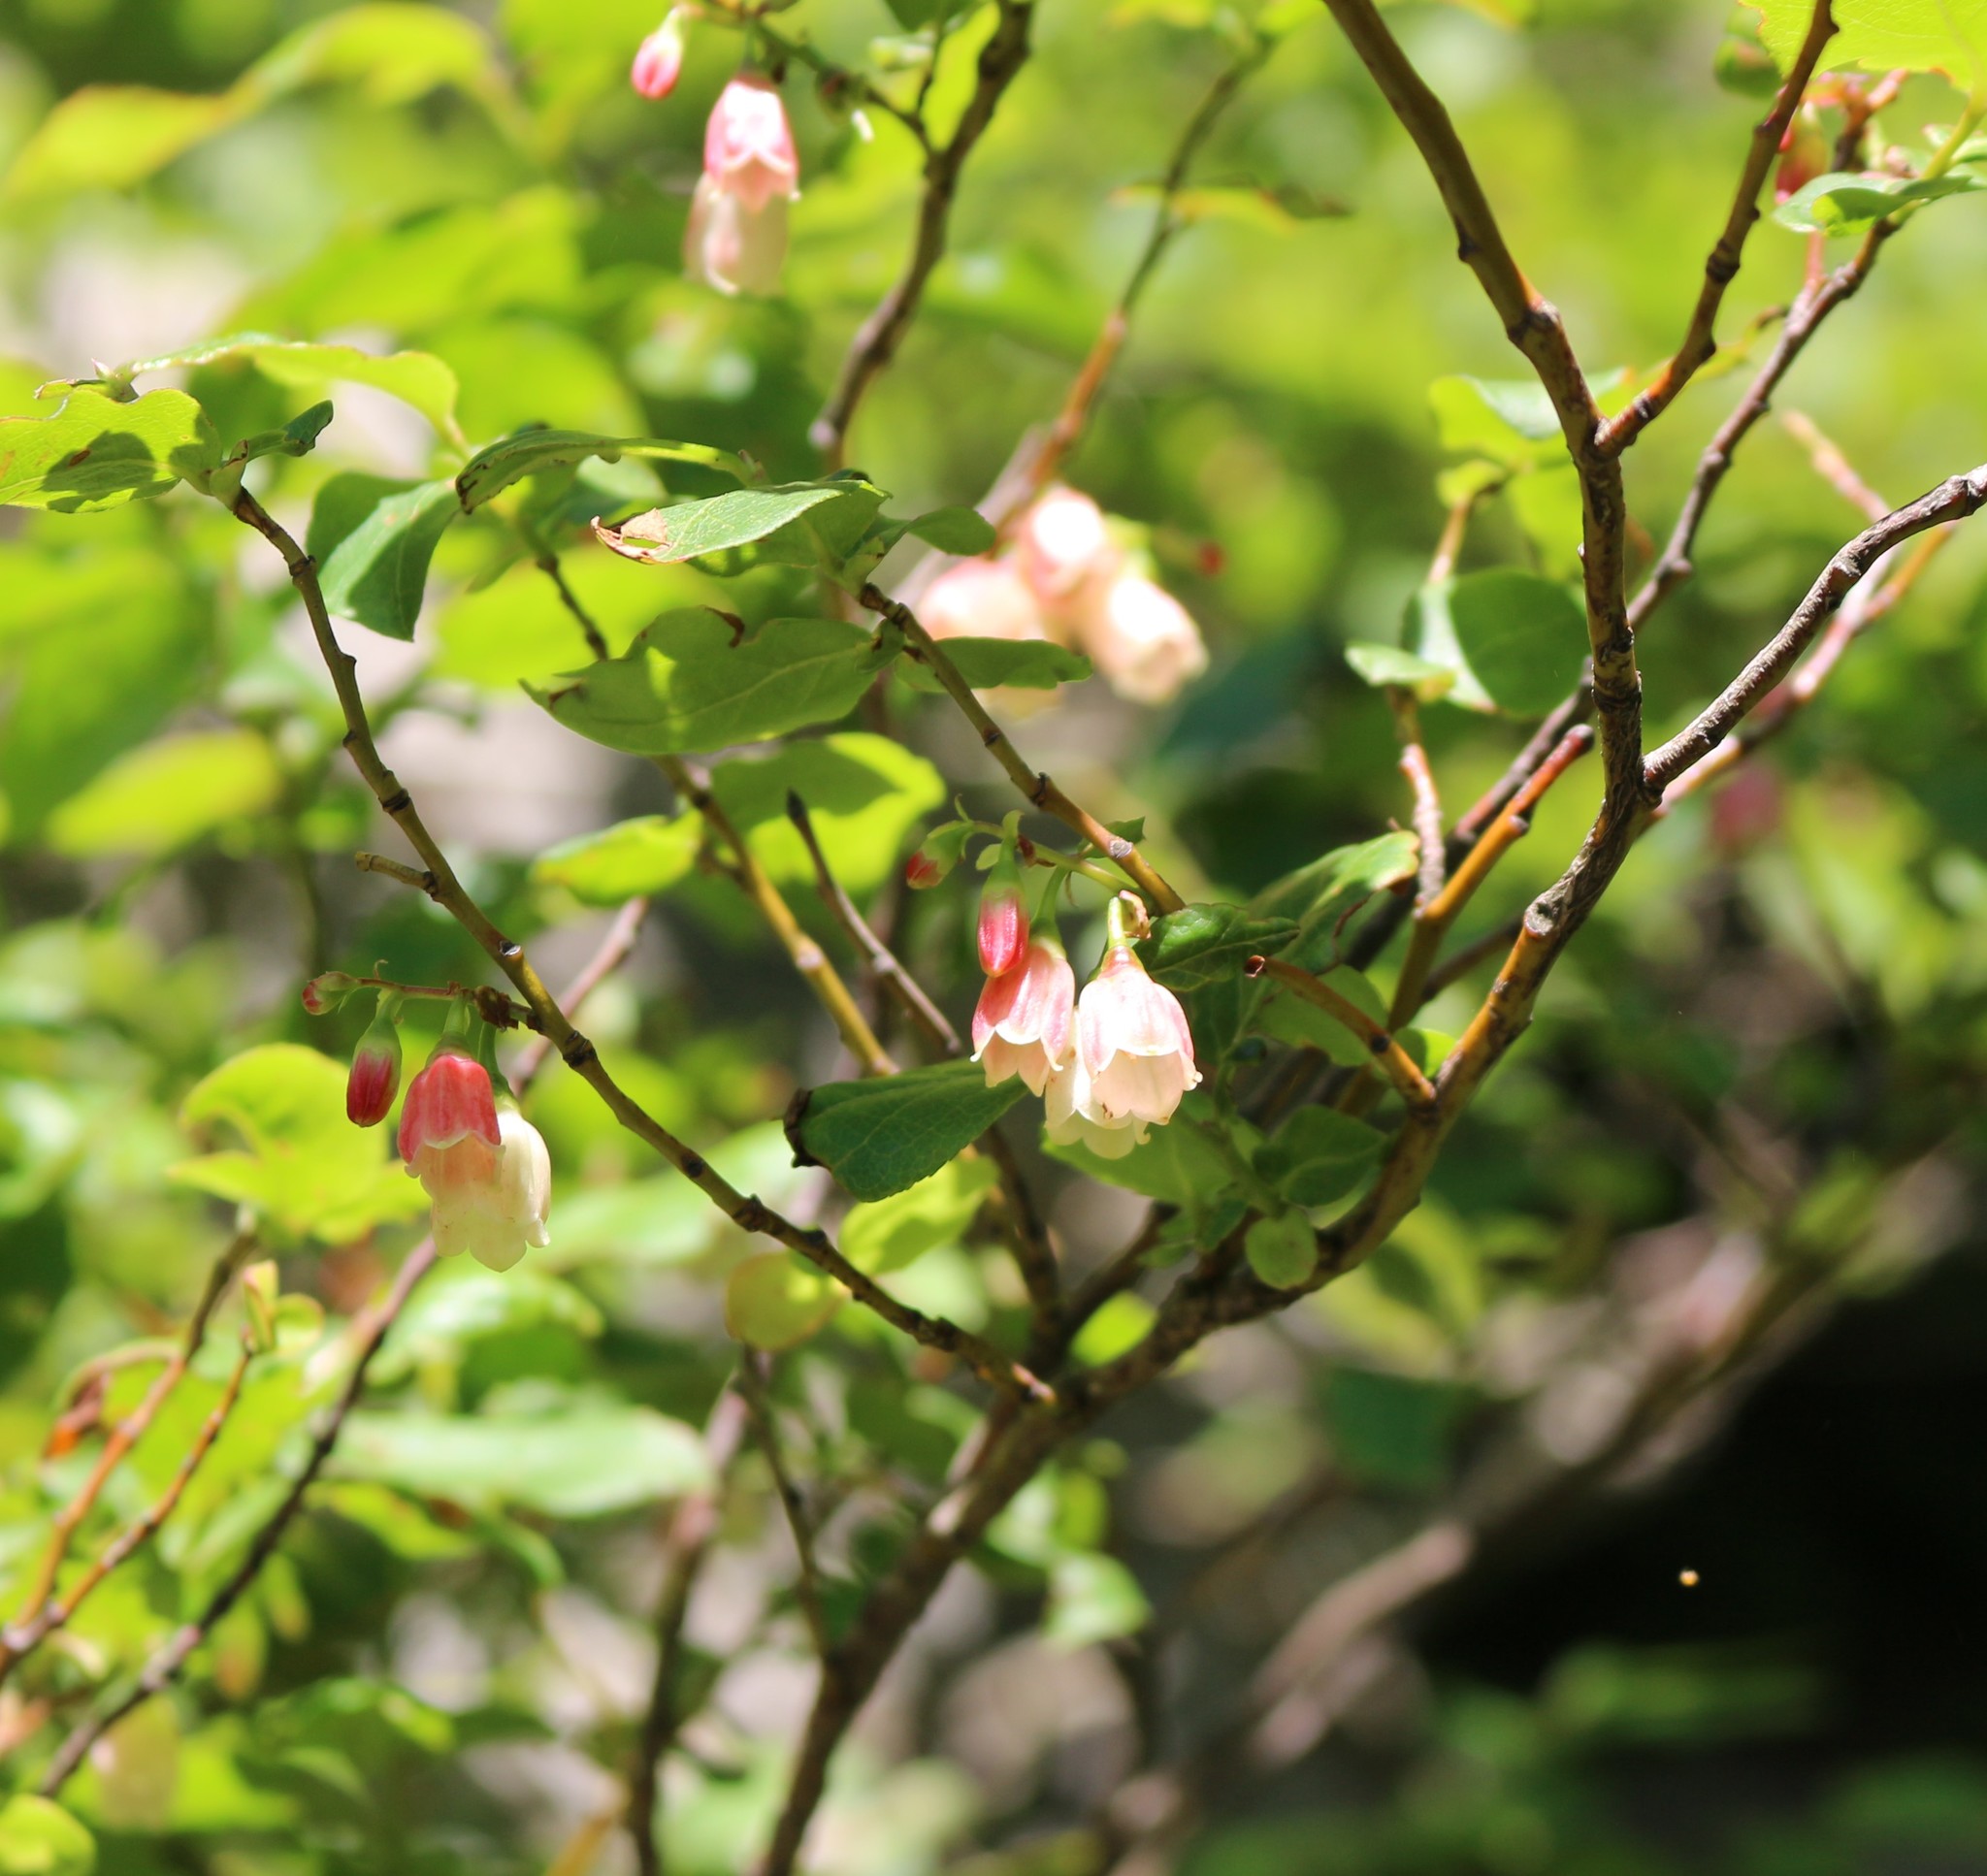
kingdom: Plantae
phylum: Tracheophyta
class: Magnoliopsida
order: Ericales
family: Ericaceae
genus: Vaccinium
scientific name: Vaccinium arctostaphylos
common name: Caucasian whortleberry
